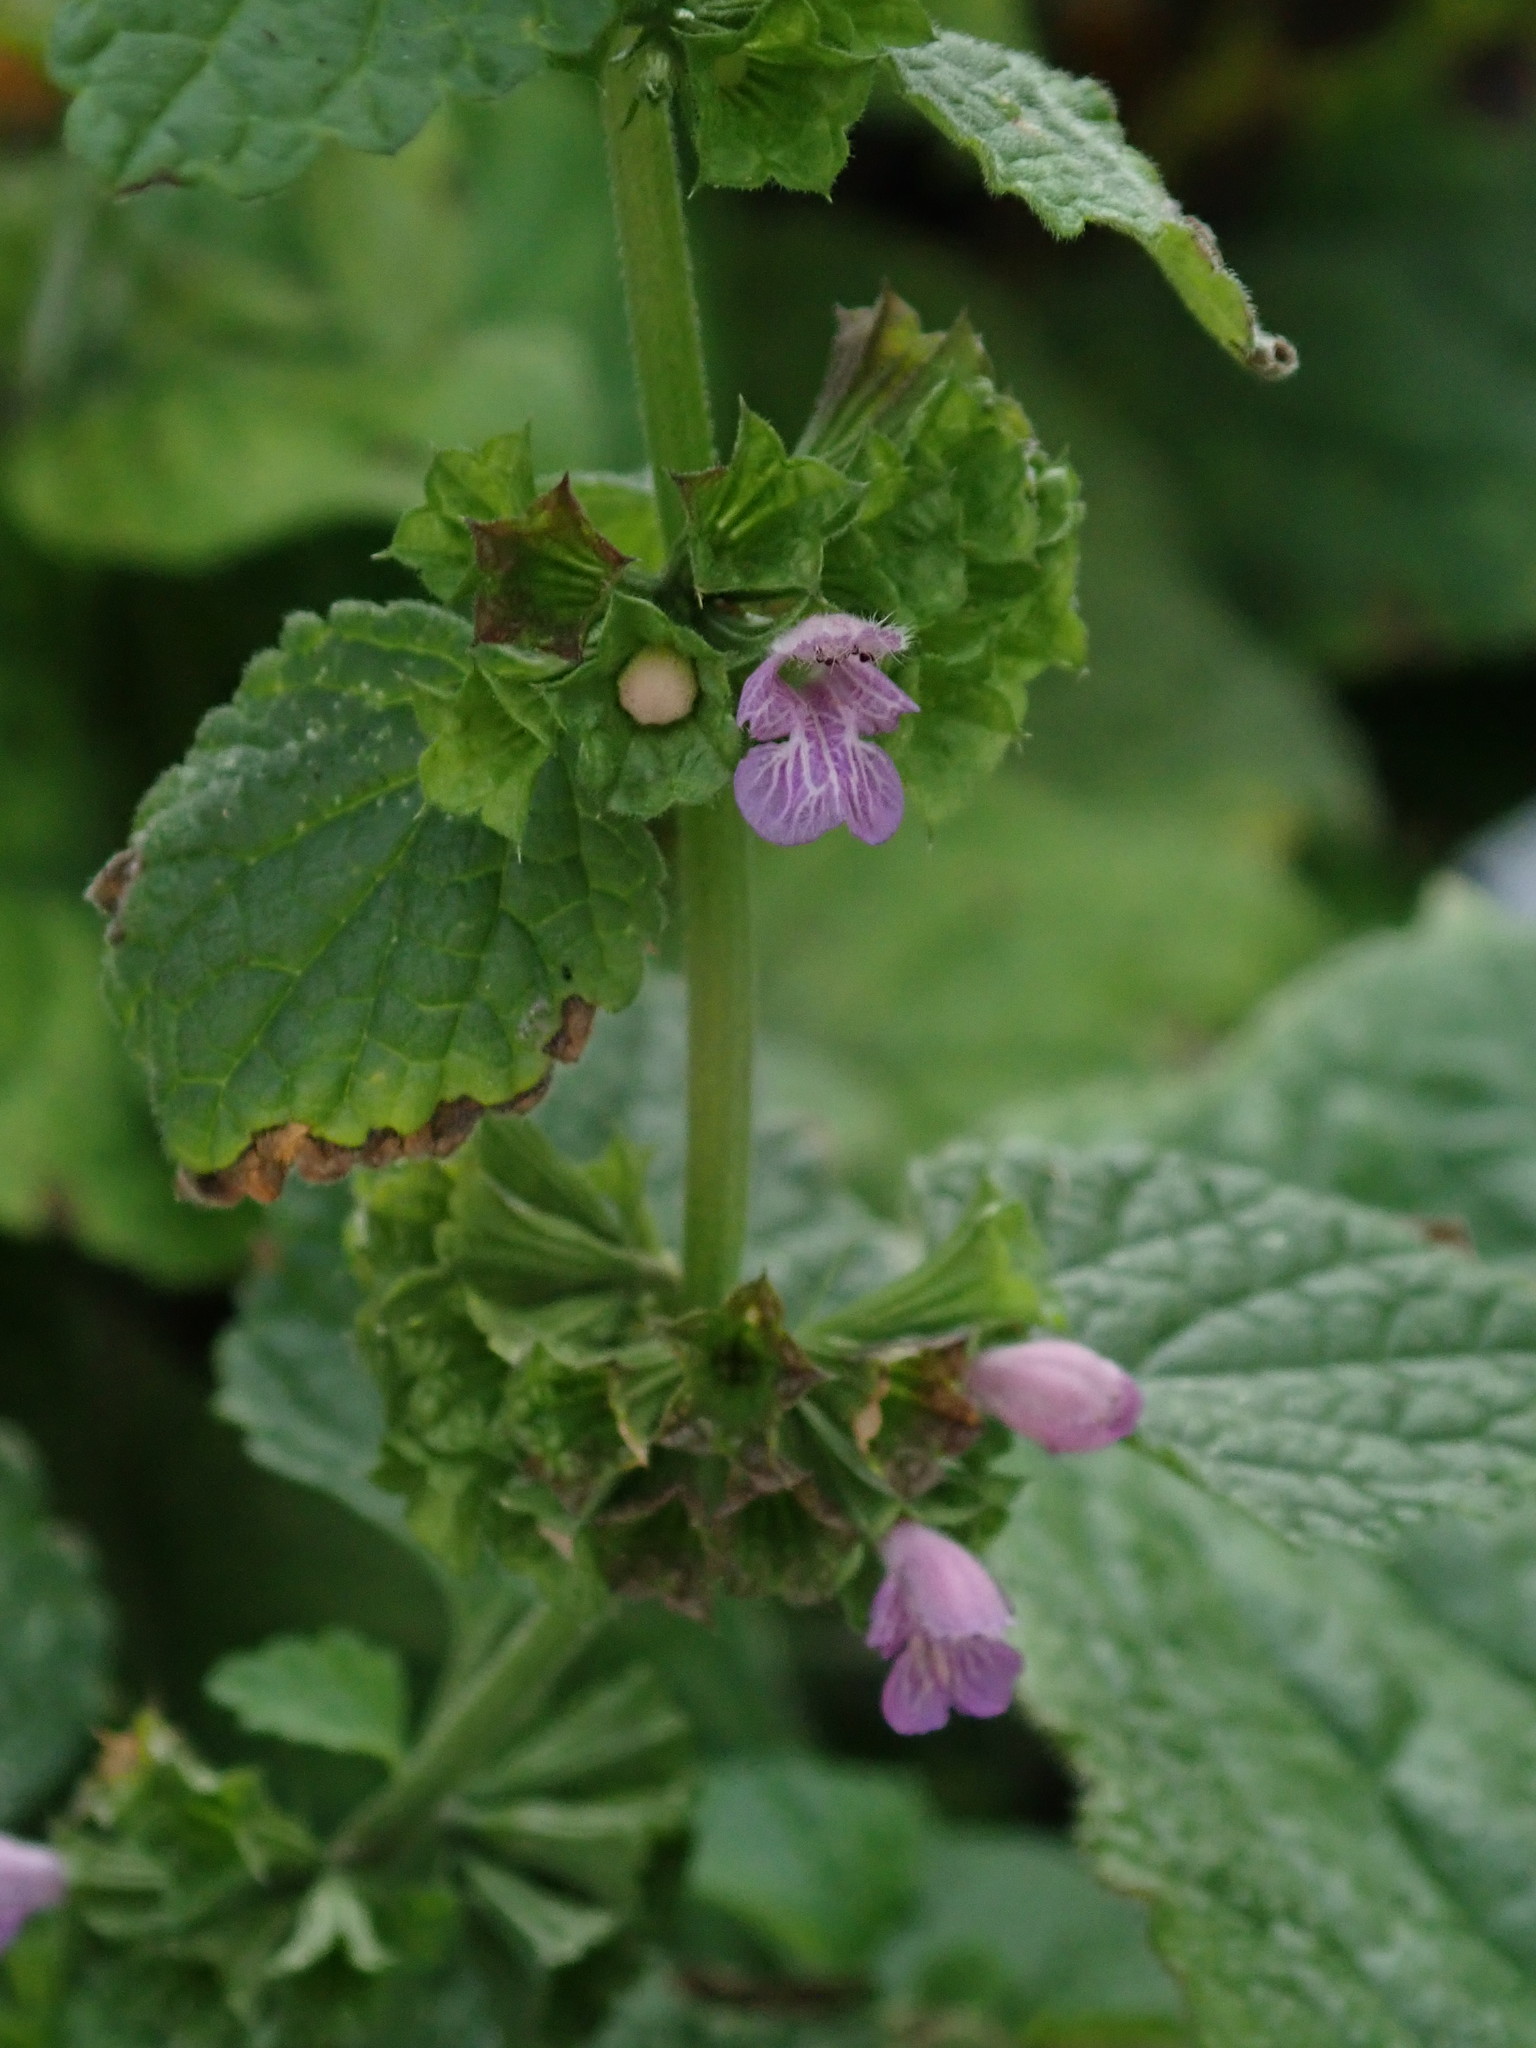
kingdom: Plantae
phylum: Tracheophyta
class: Magnoliopsida
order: Lamiales
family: Lamiaceae
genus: Ballota
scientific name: Ballota nigra
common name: Black horehound
